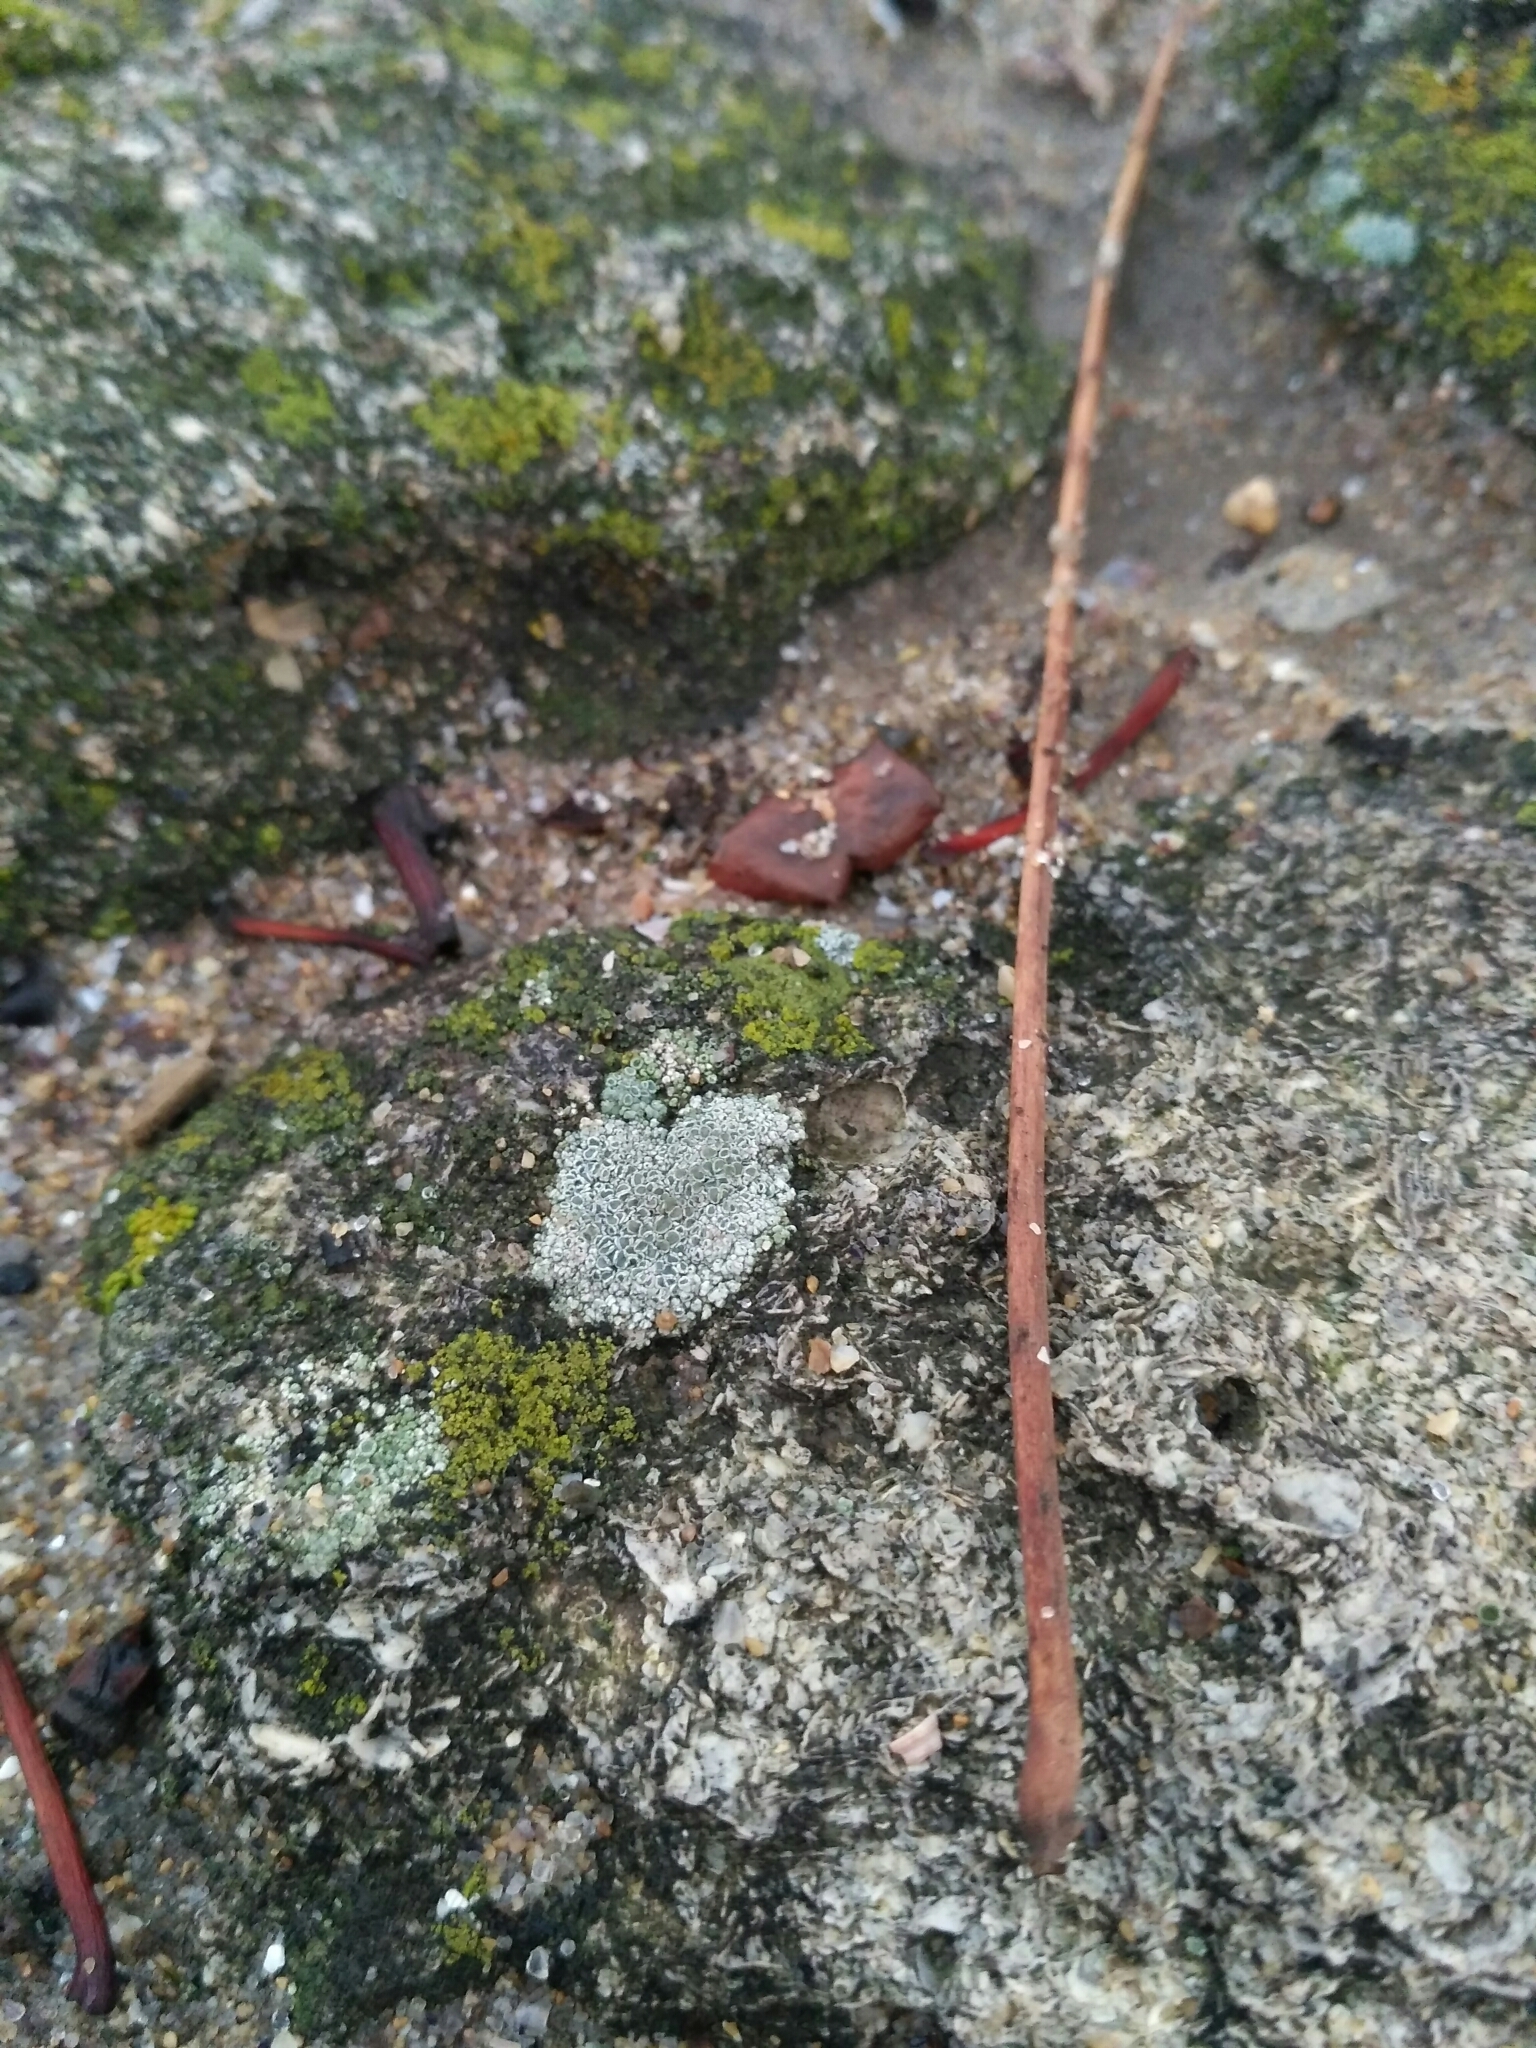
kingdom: Fungi
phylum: Ascomycota
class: Lecanoromycetes
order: Lecanorales
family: Lecanoraceae
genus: Polyozosia
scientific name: Polyozosia albescens
